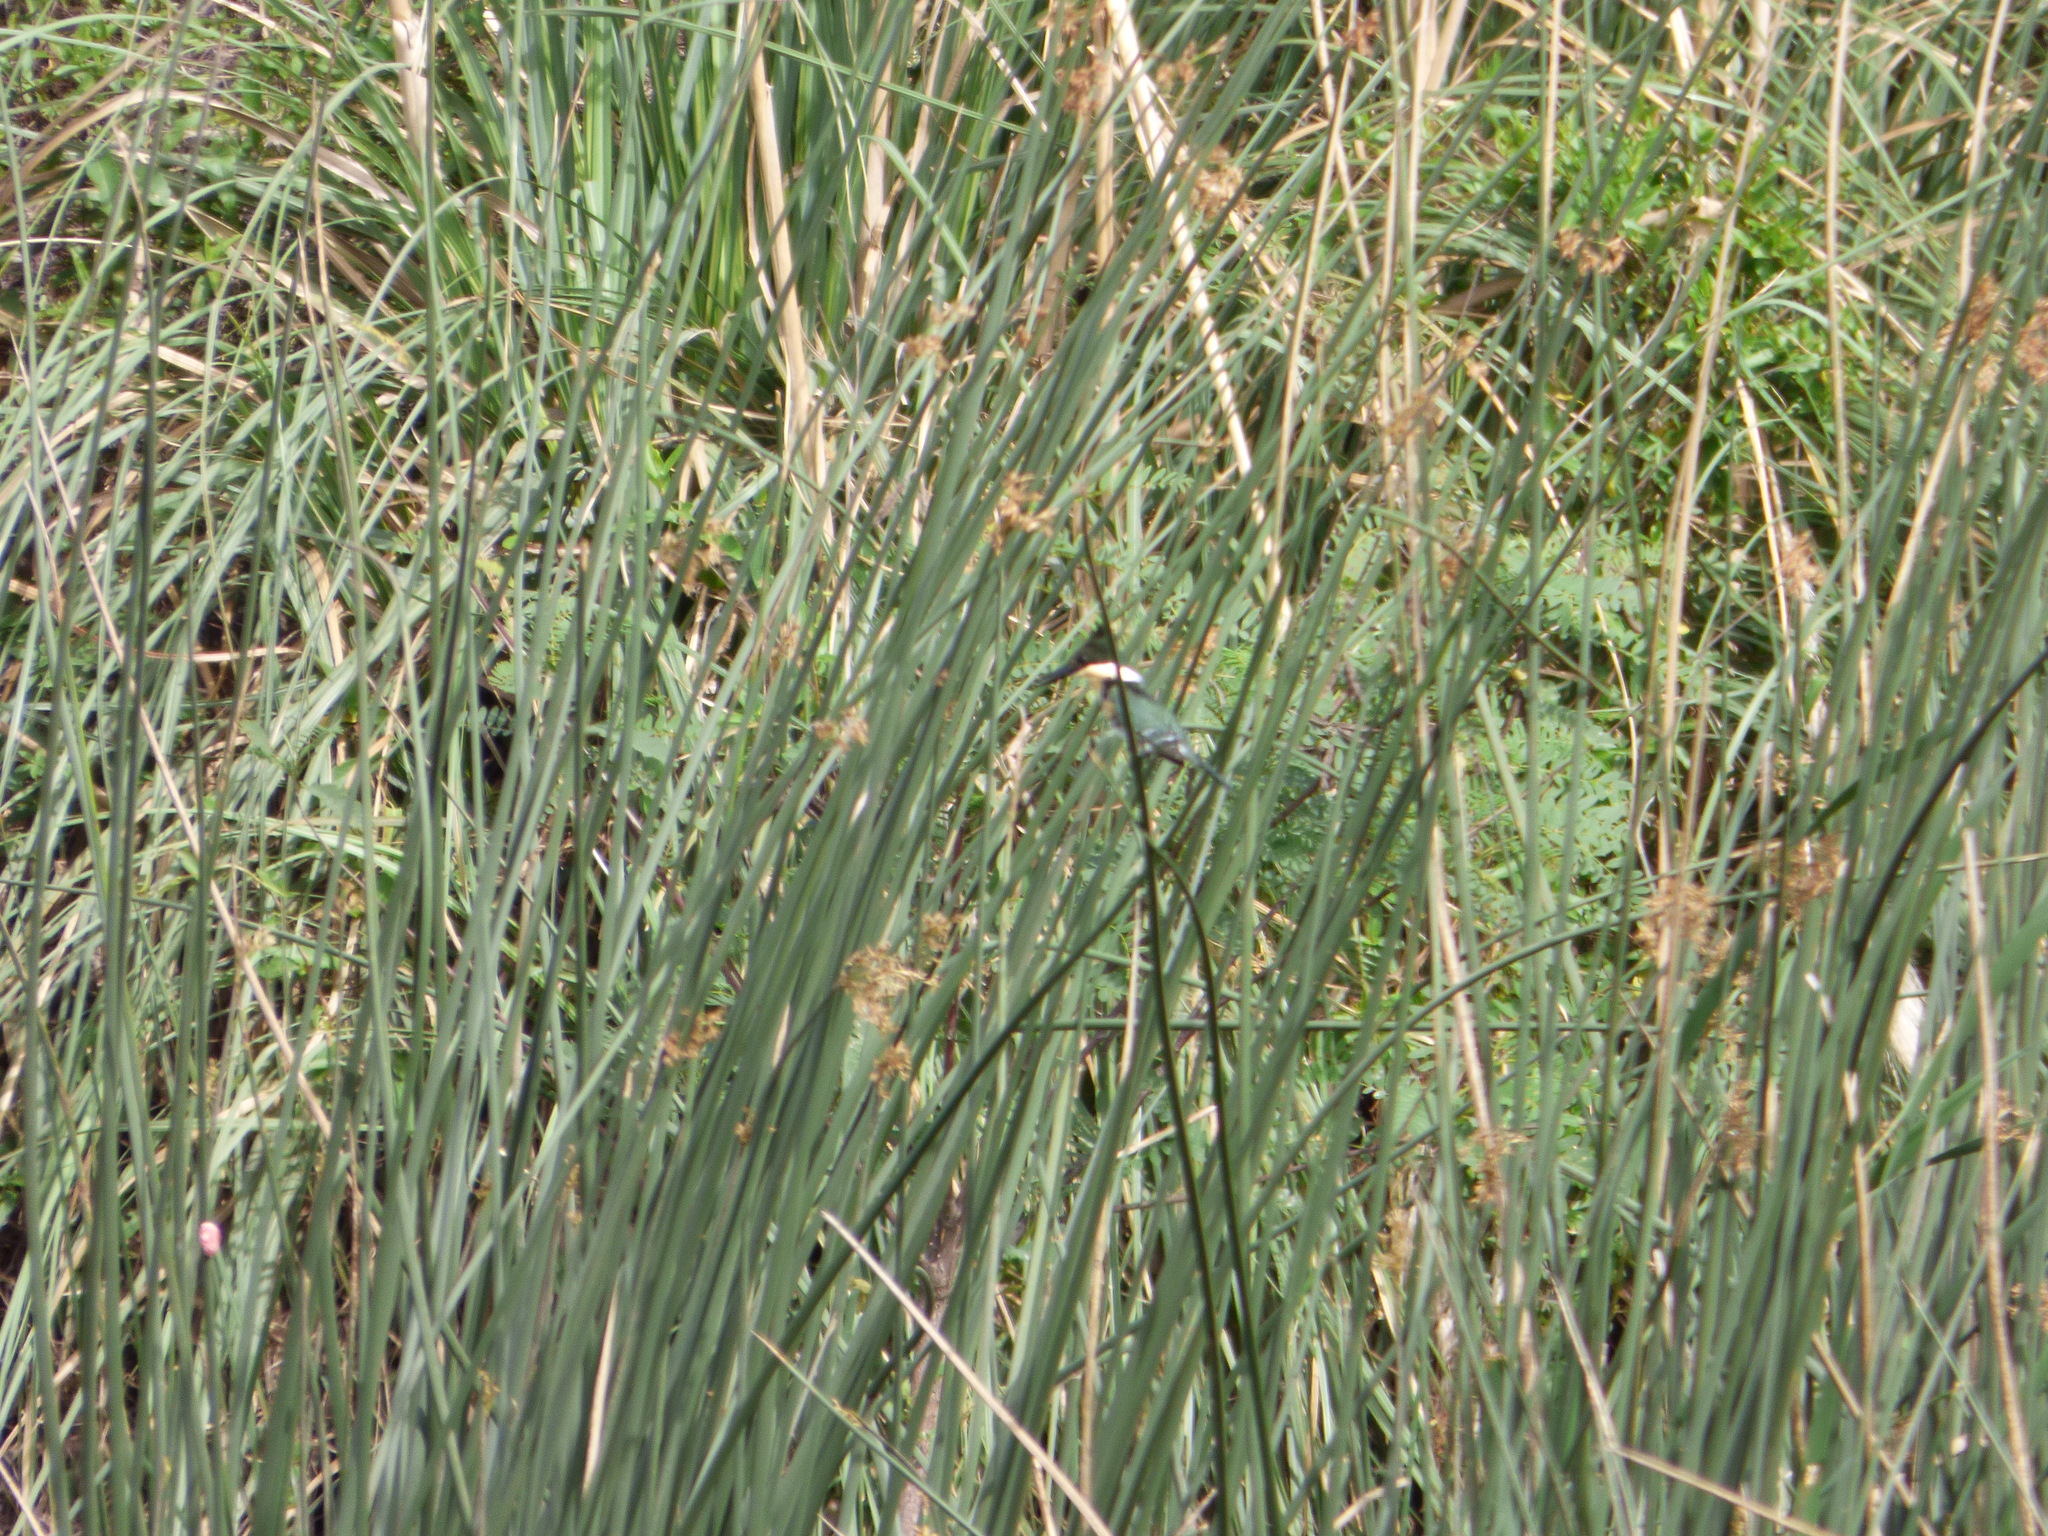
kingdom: Animalia
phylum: Chordata
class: Aves
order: Coraciiformes
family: Alcedinidae
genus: Chloroceryle
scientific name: Chloroceryle americana
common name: Green kingfisher
